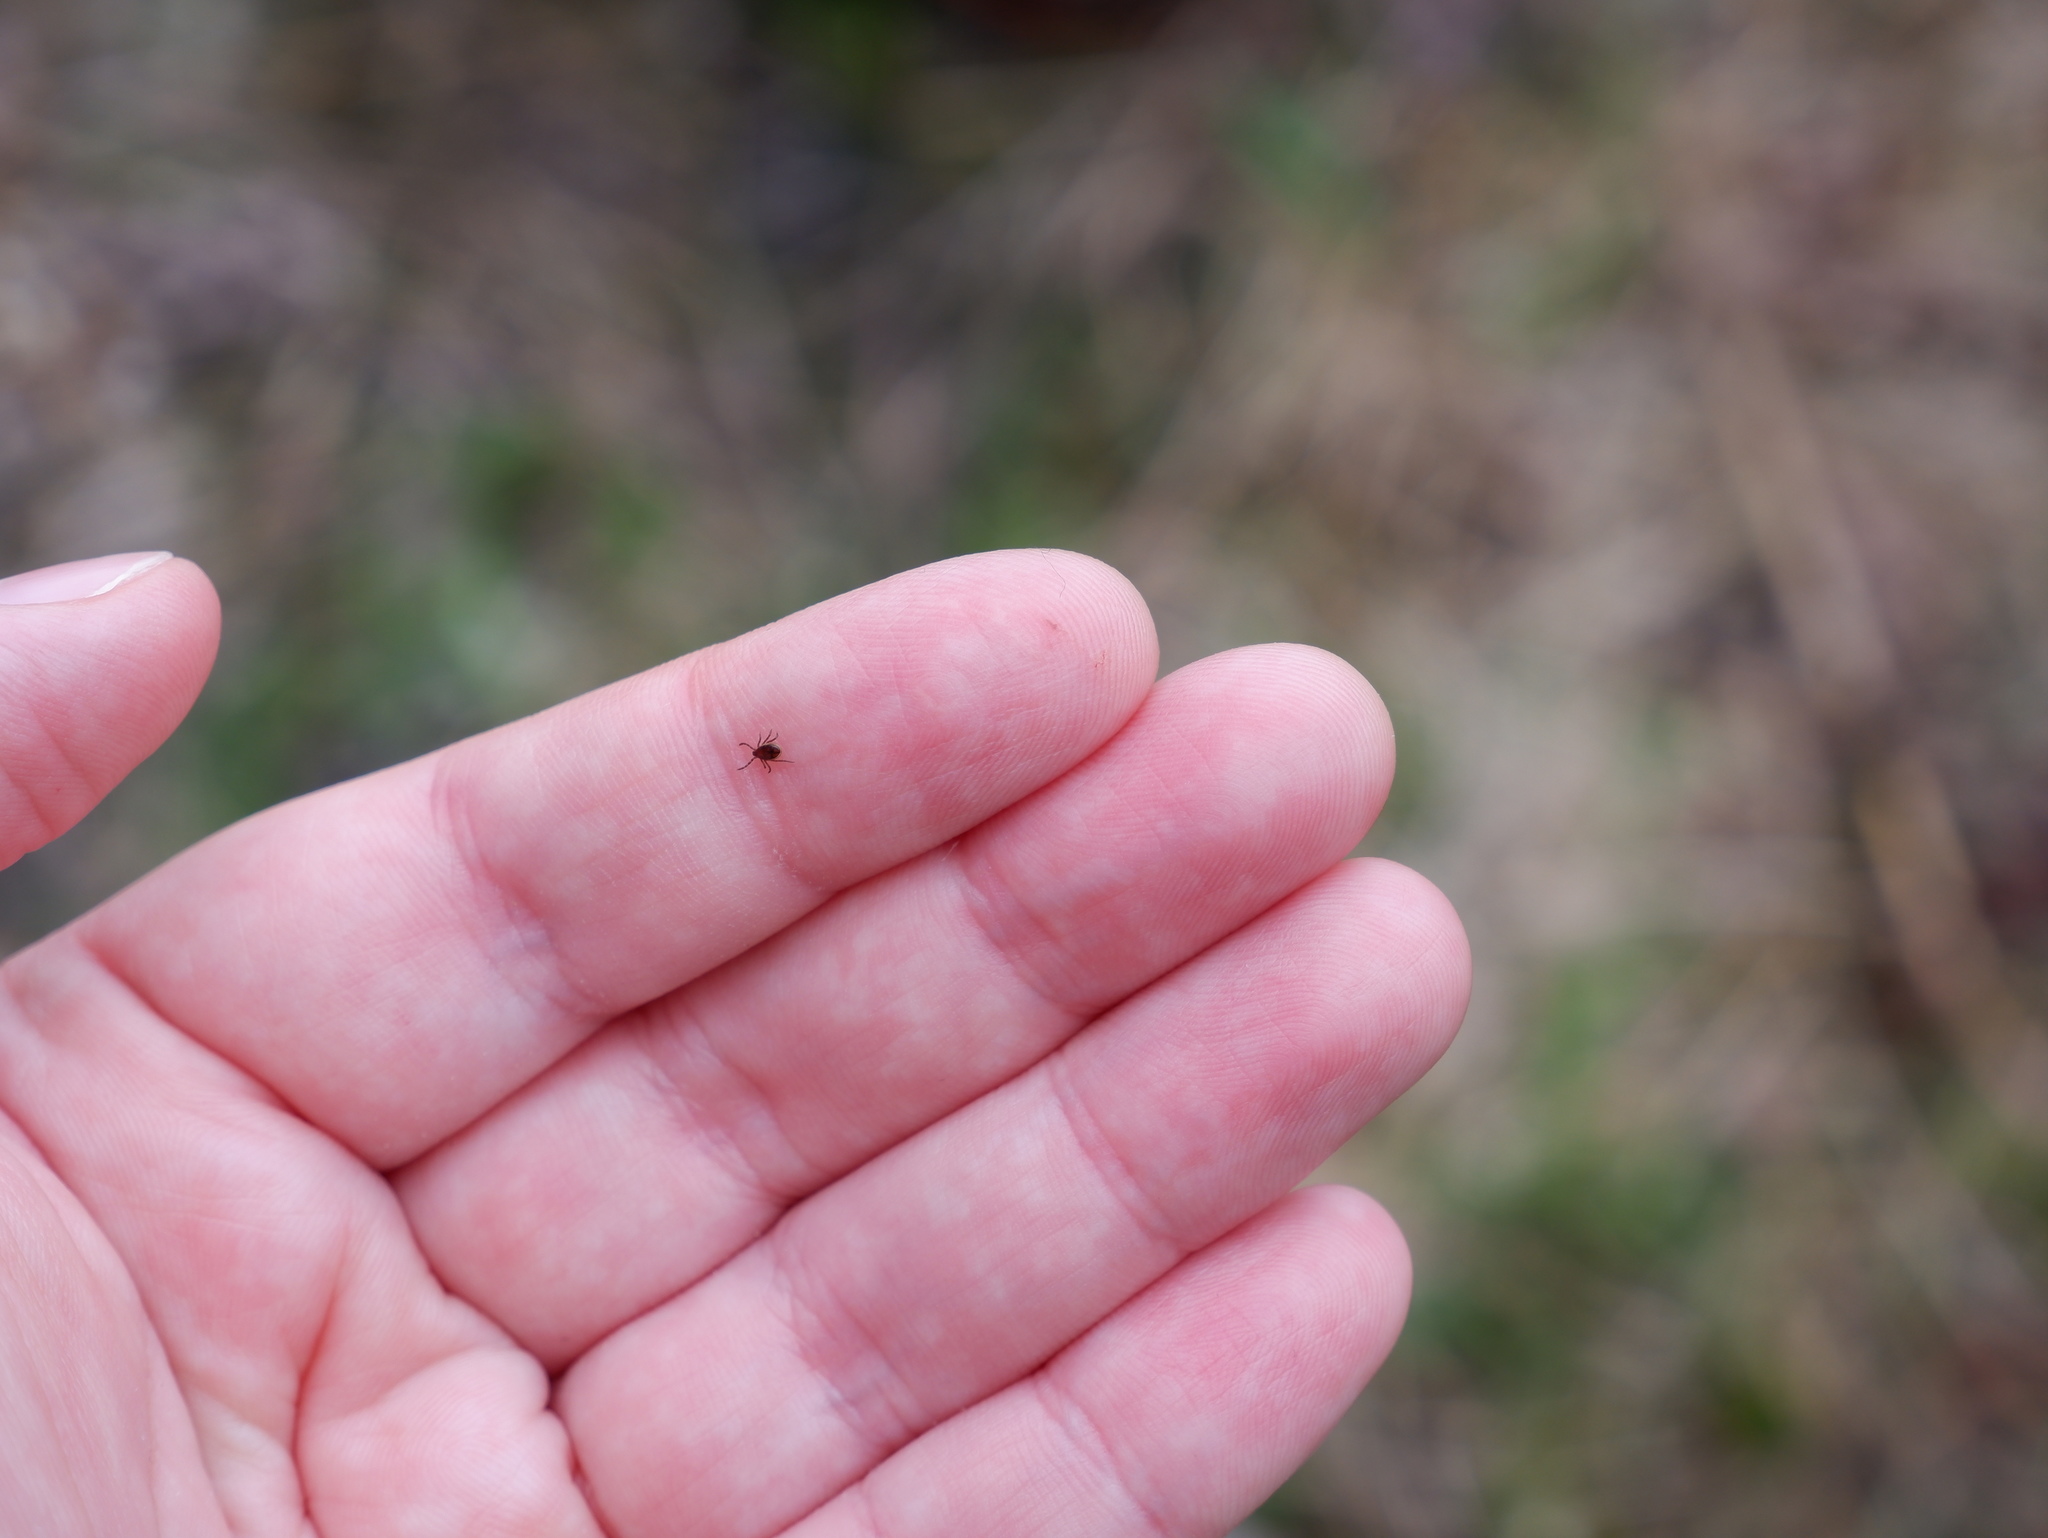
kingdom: Animalia
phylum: Arthropoda
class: Arachnida
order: Ixodida
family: Ixodidae
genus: Ixodes
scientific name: Ixodes scapularis
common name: Black legged tick
